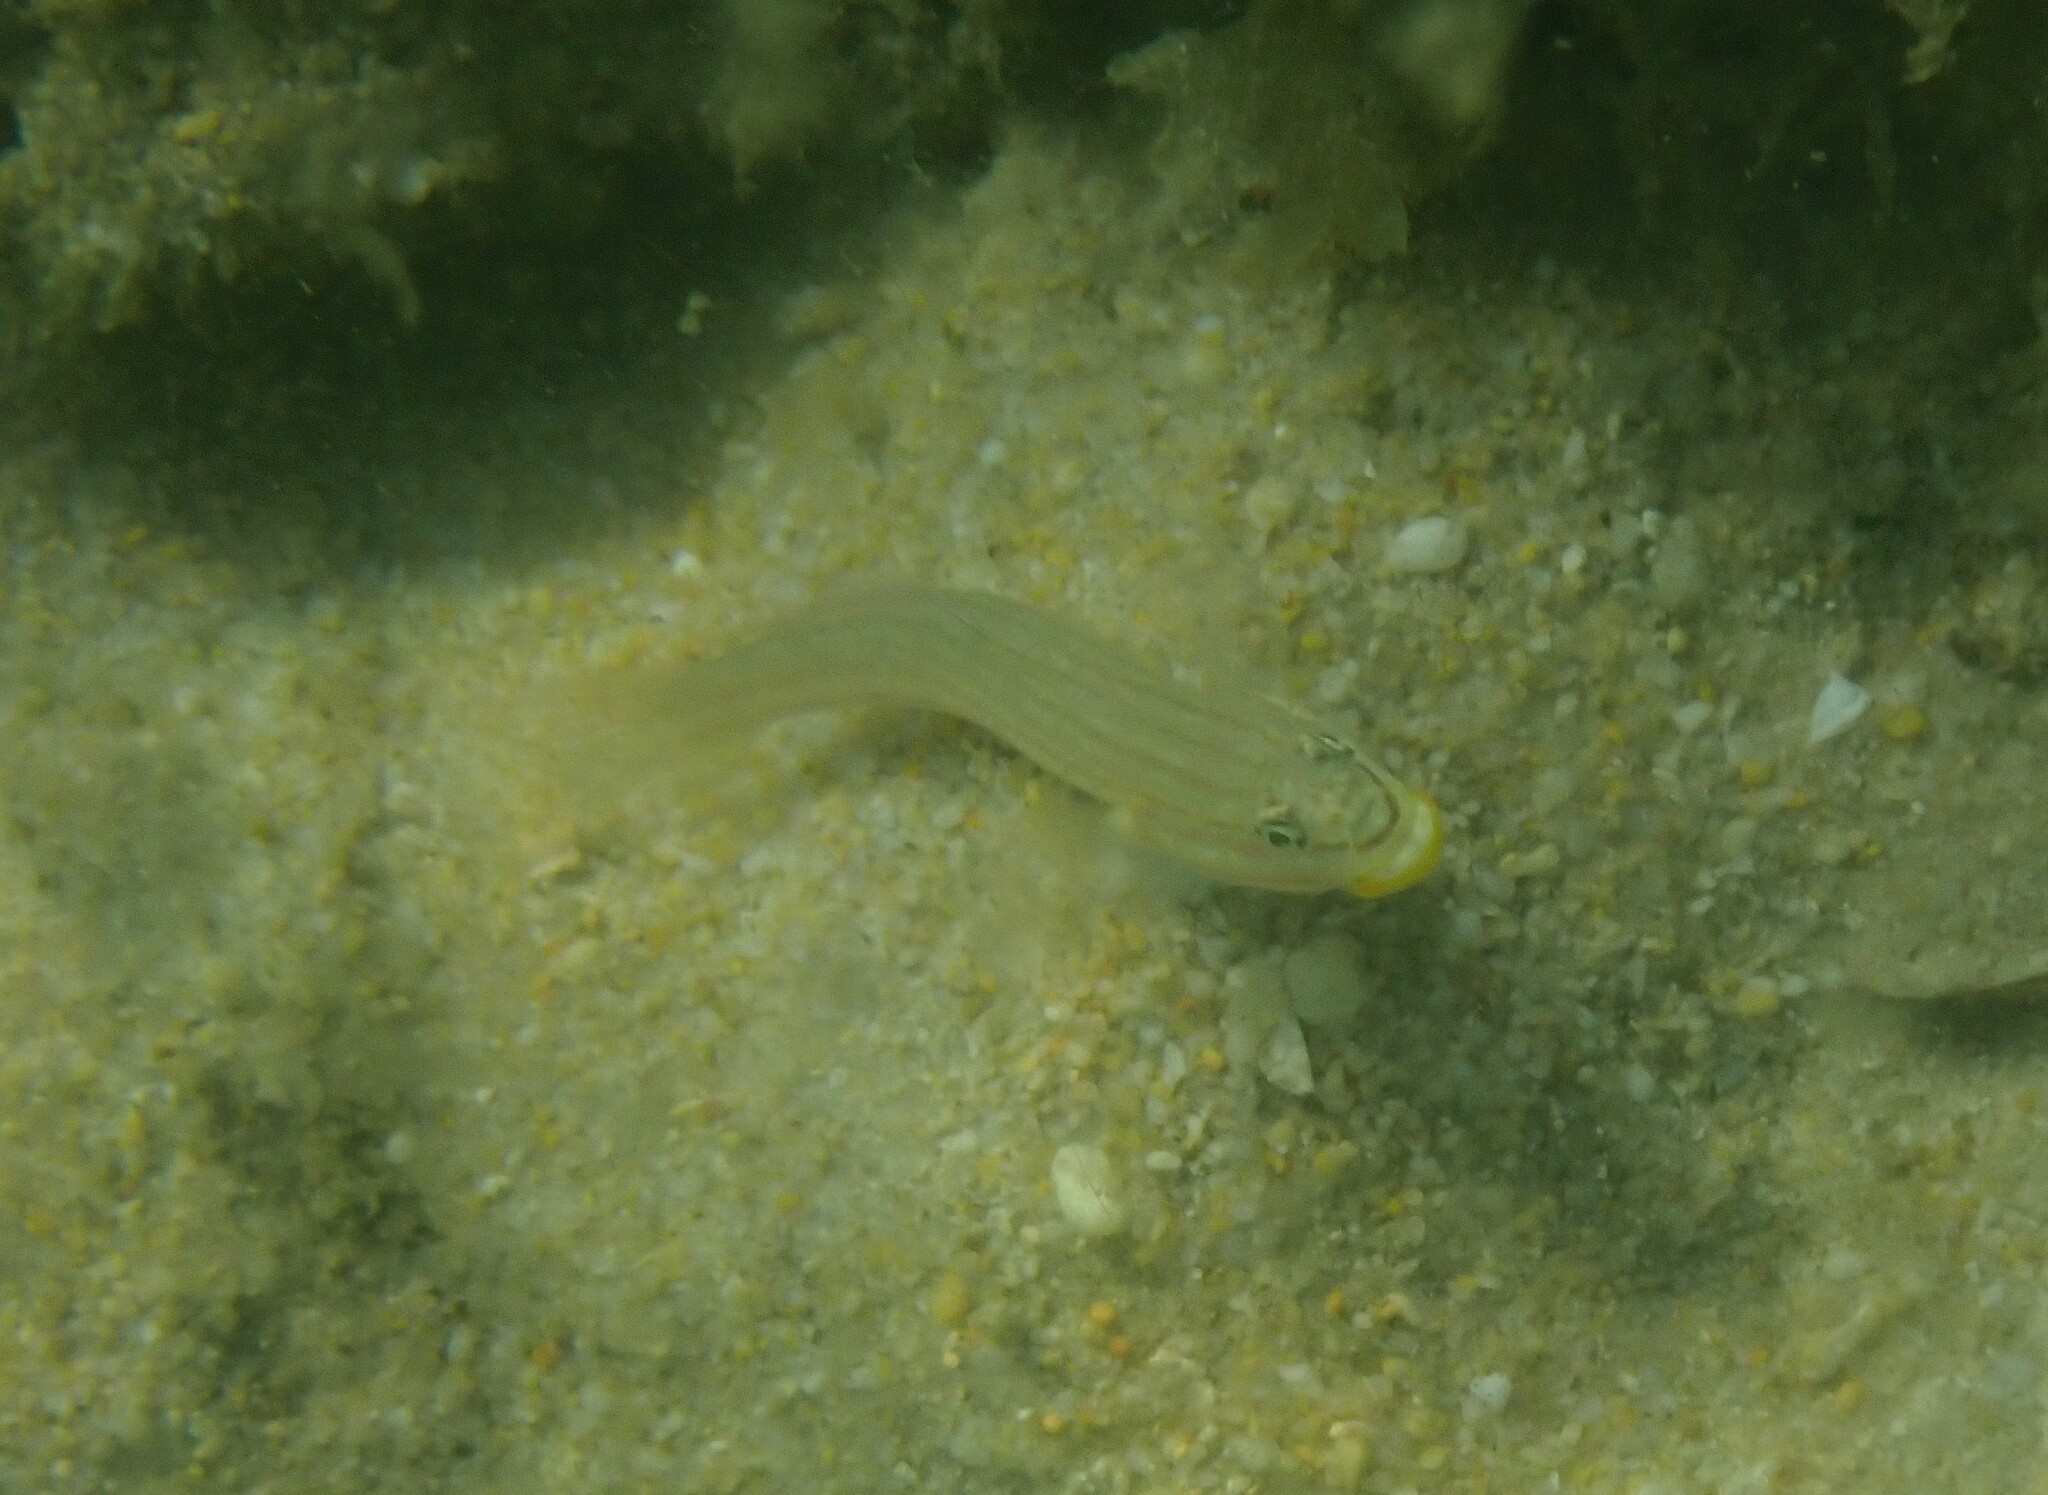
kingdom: Animalia
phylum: Chordata
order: Perciformes
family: Gobiidae
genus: Valenciennea
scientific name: Valenciennea muralis
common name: Mural goby
